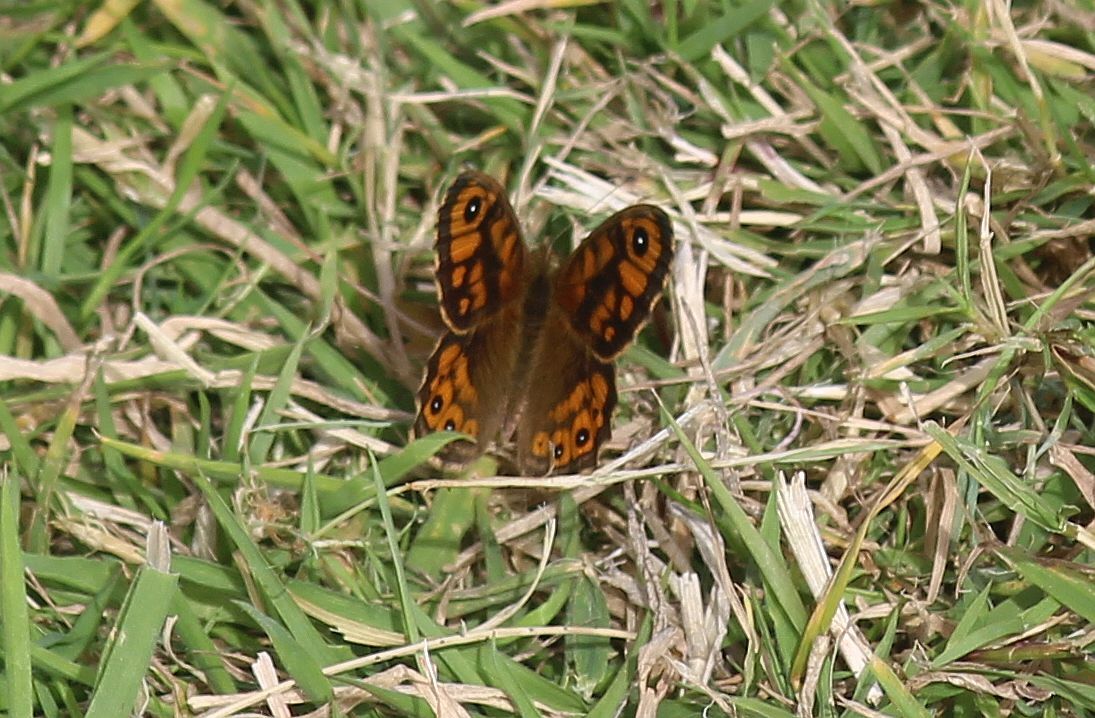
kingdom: Animalia
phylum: Arthropoda
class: Insecta
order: Lepidoptera
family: Nymphalidae
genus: Pararge
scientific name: Pararge Lasiommata megera
